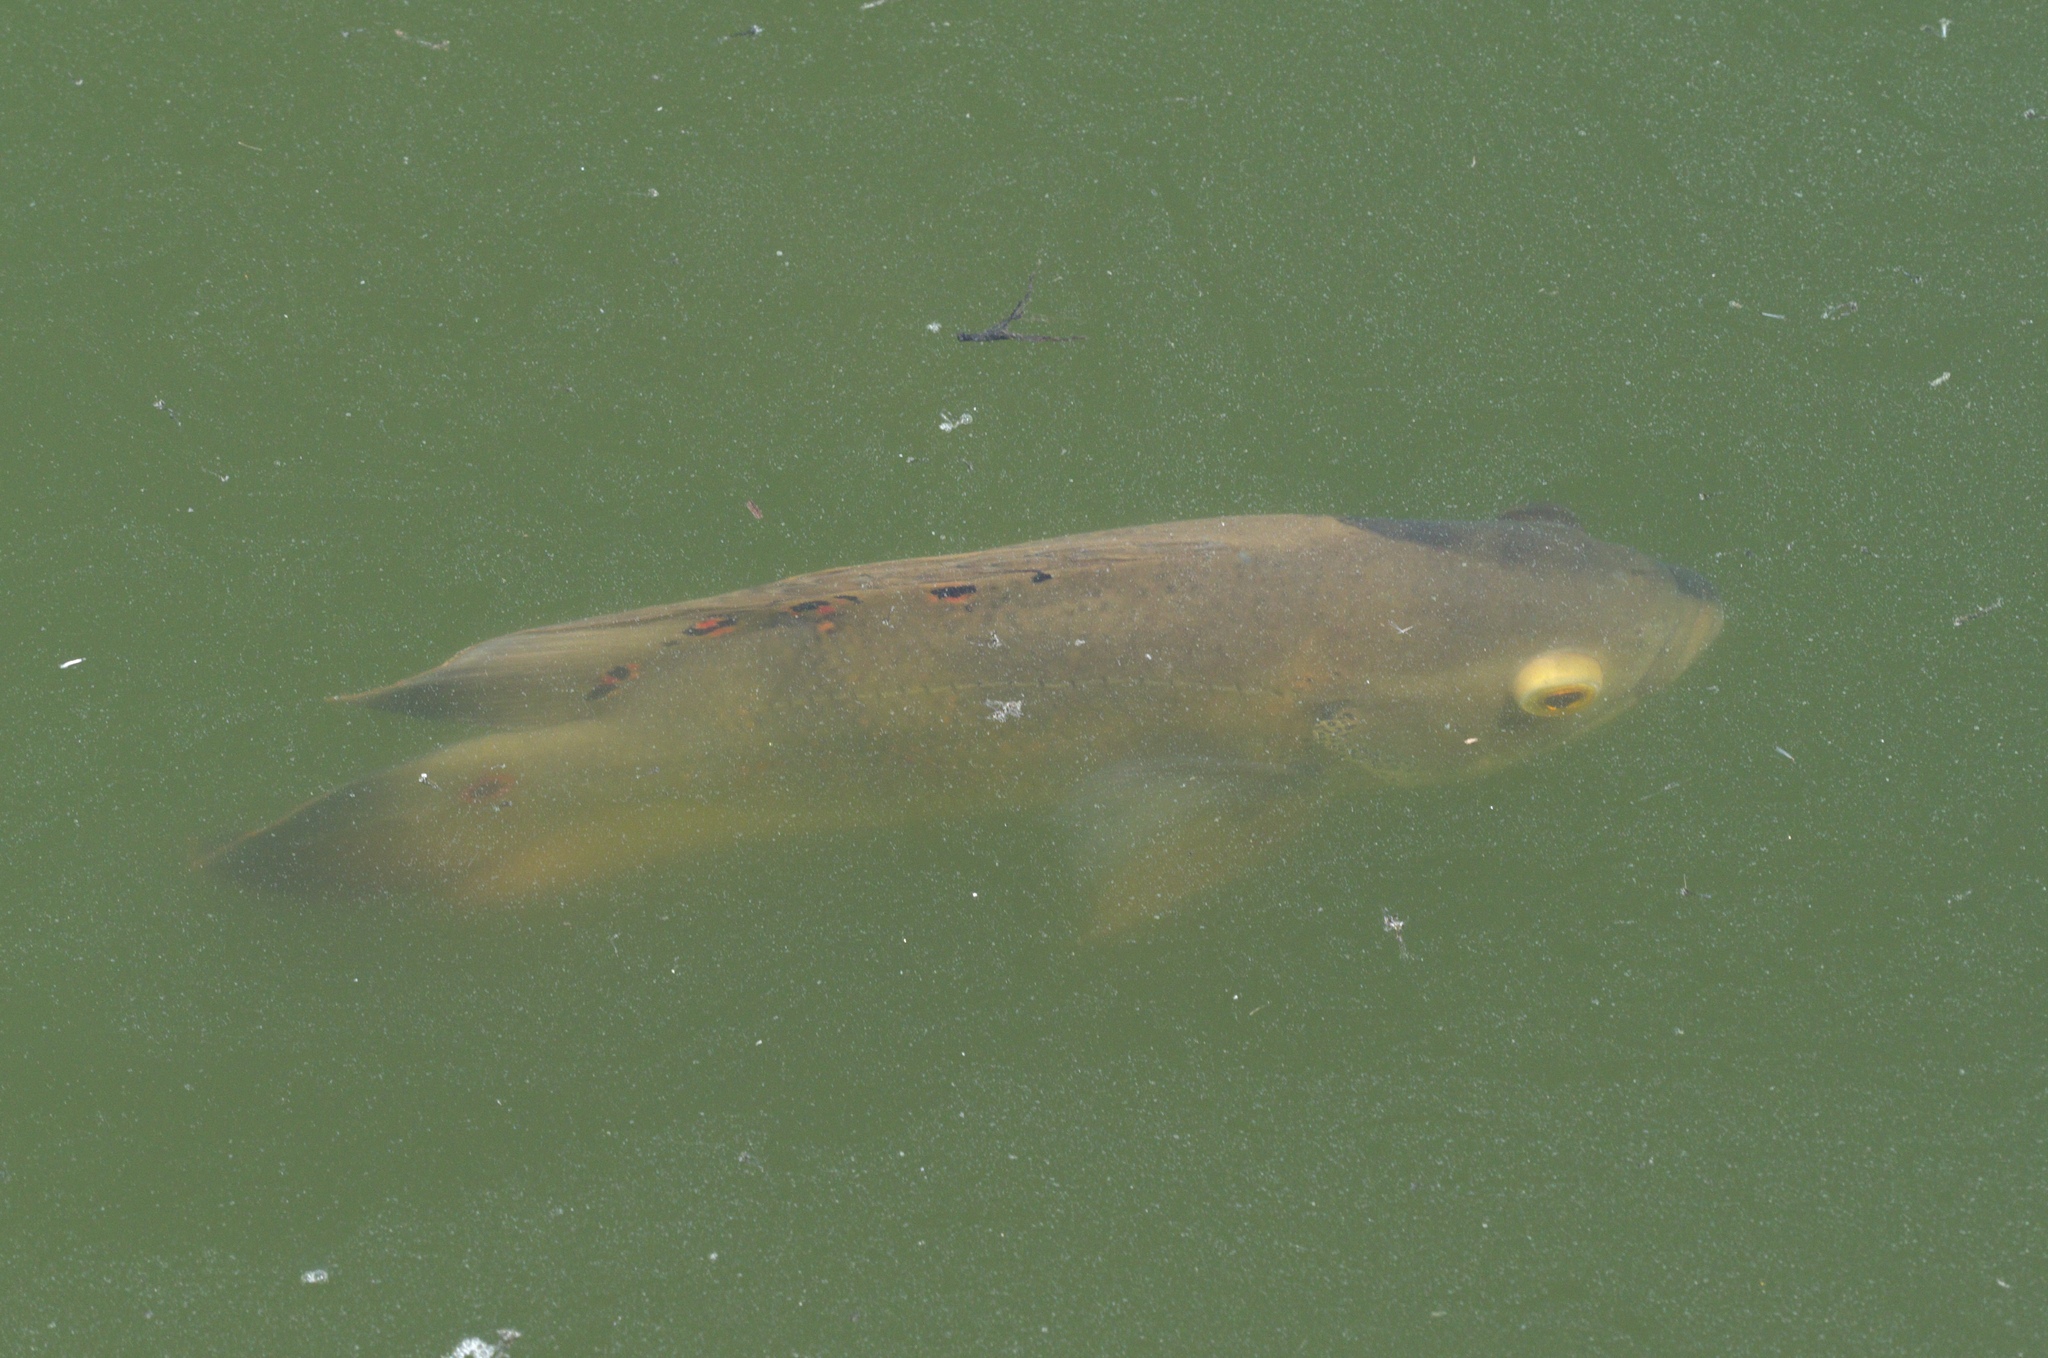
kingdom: Animalia
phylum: Chordata
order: Perciformes
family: Cichlidae
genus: Astronotus
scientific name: Astronotus ocellatus
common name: Oscar
